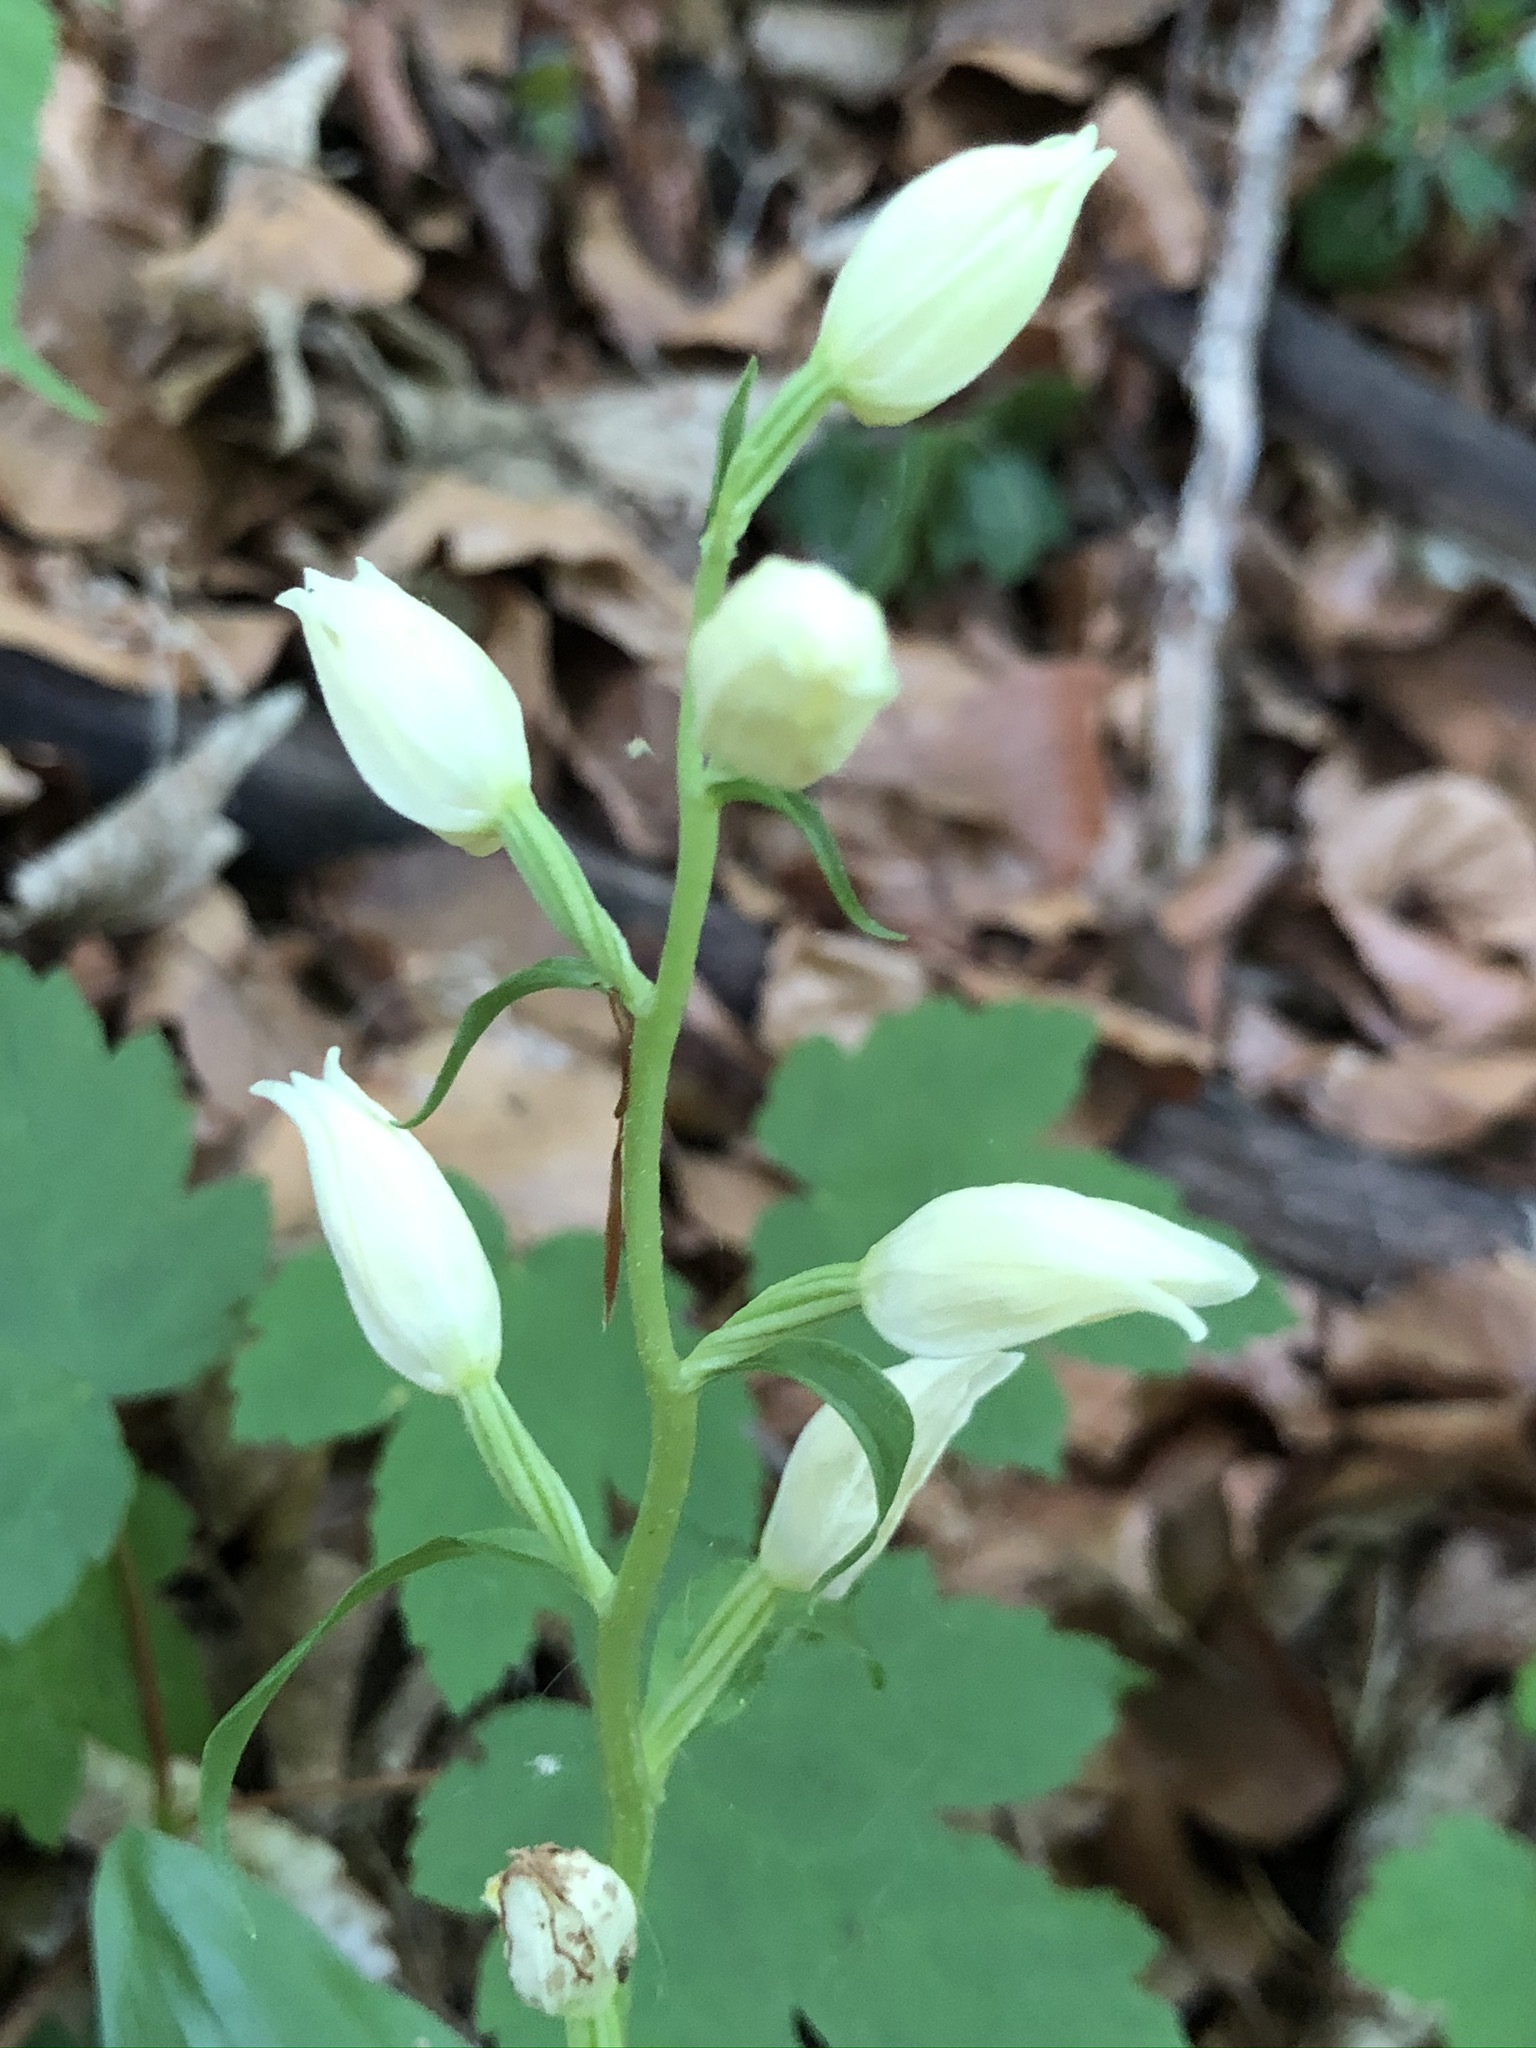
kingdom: Plantae
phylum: Tracheophyta
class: Liliopsida
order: Asparagales
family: Orchidaceae
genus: Cephalanthera
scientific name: Cephalanthera damasonium
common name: White helleborine
